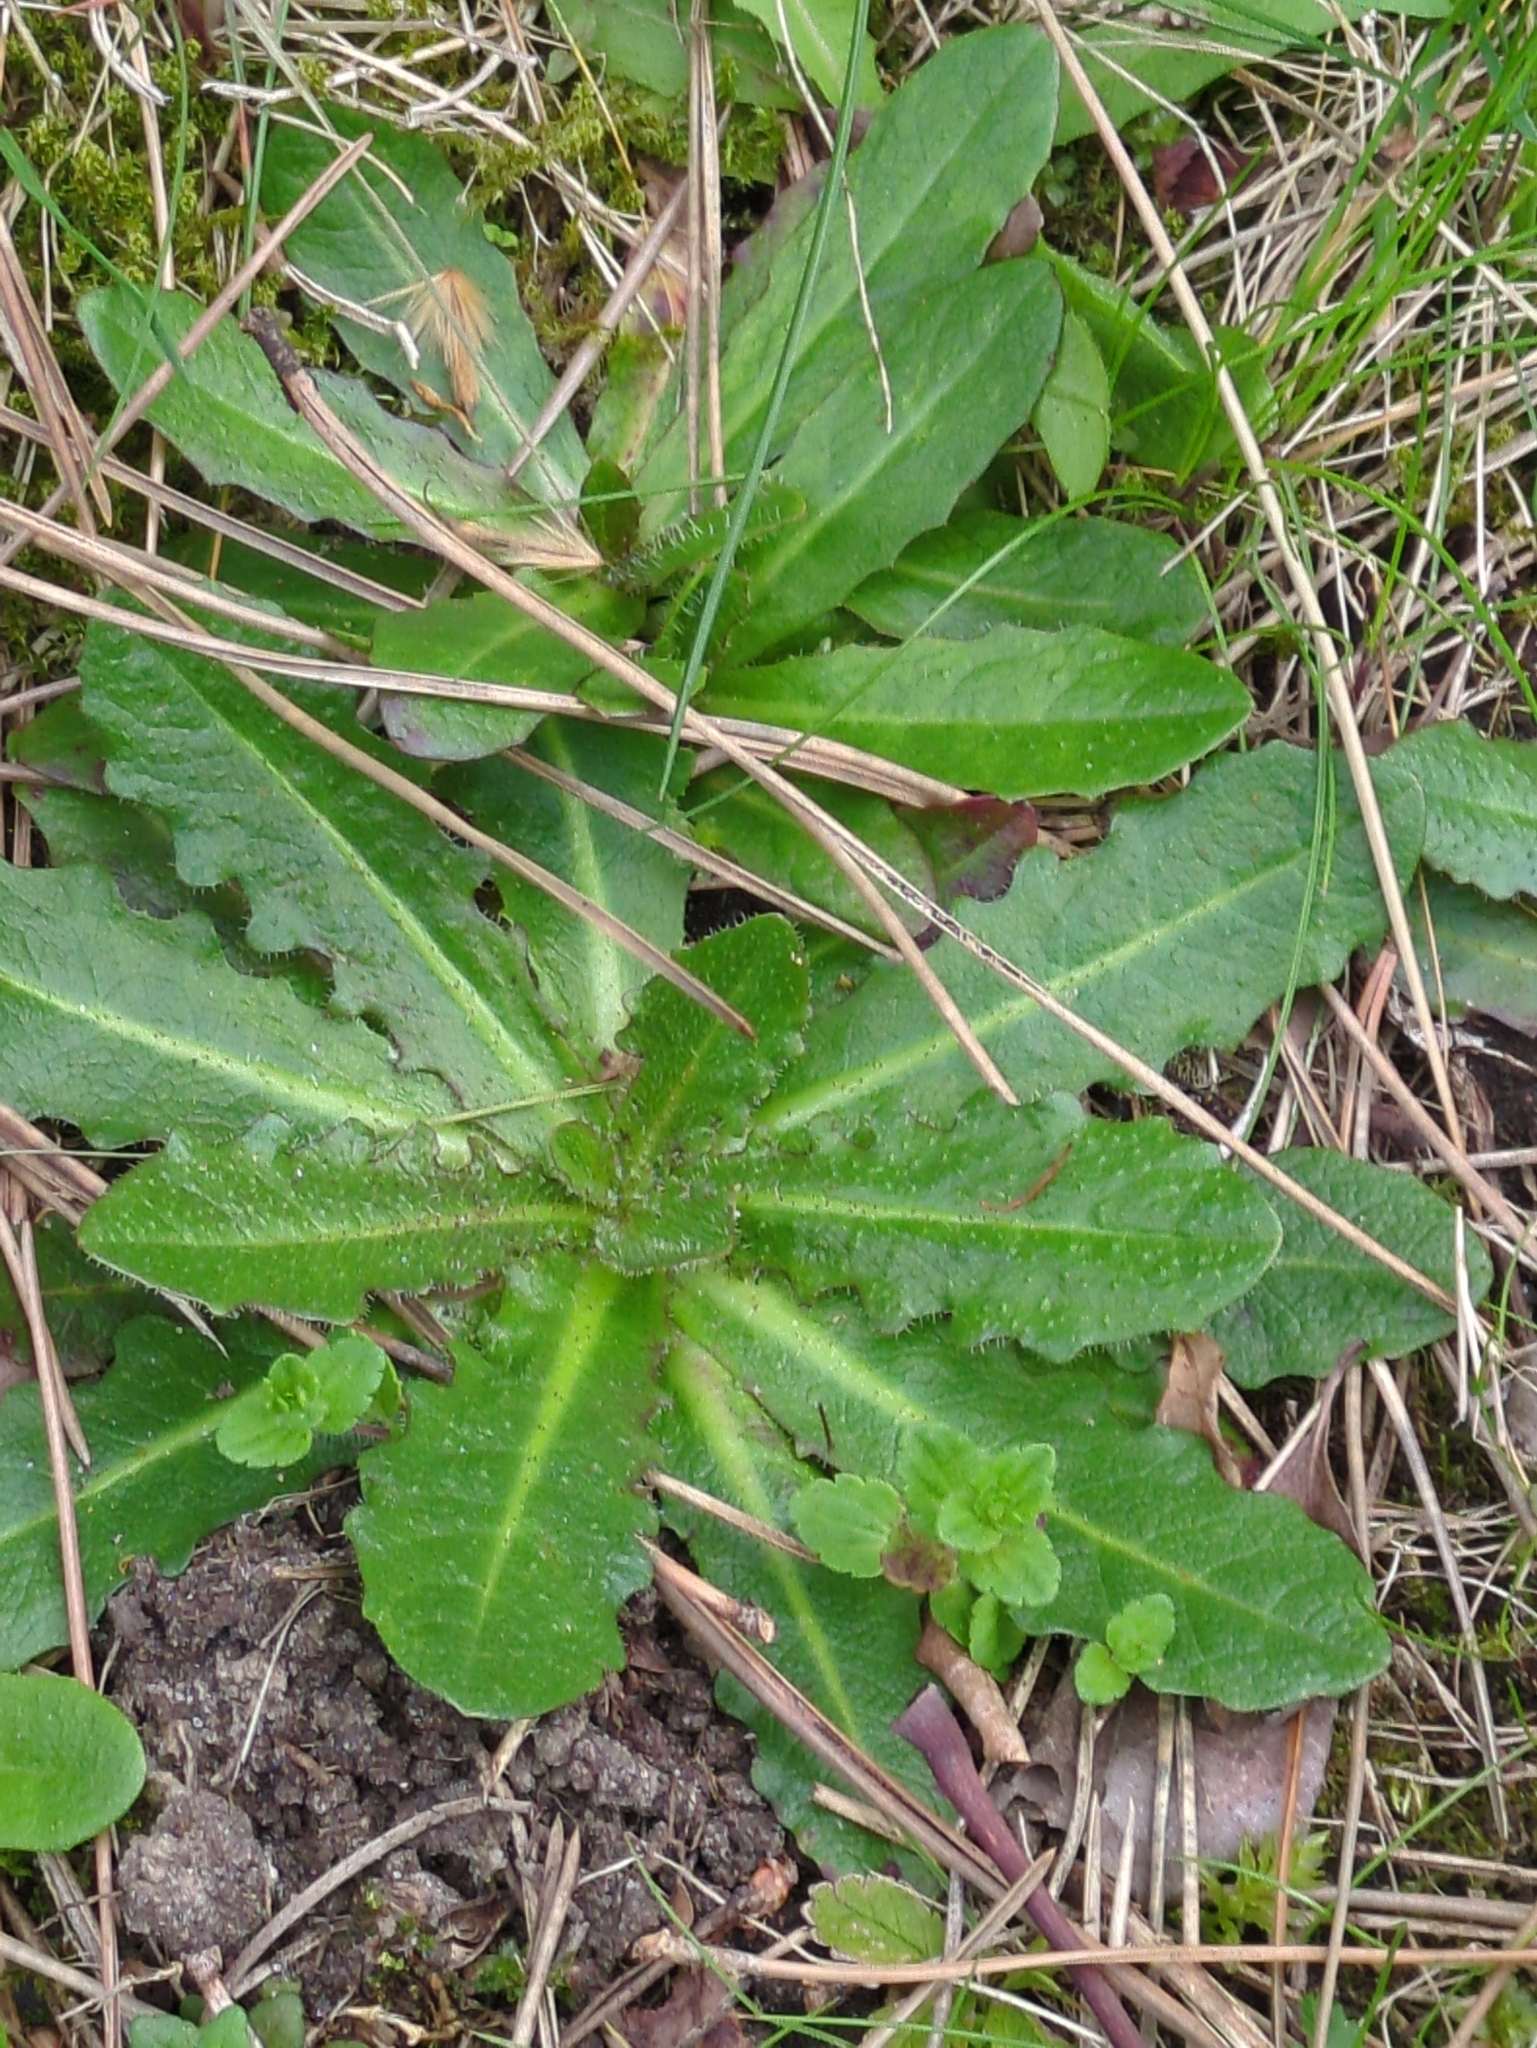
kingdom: Plantae
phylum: Tracheophyta
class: Magnoliopsida
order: Asterales
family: Asteraceae
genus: Hypochaeris
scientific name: Hypochaeris radicata
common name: Flatweed
